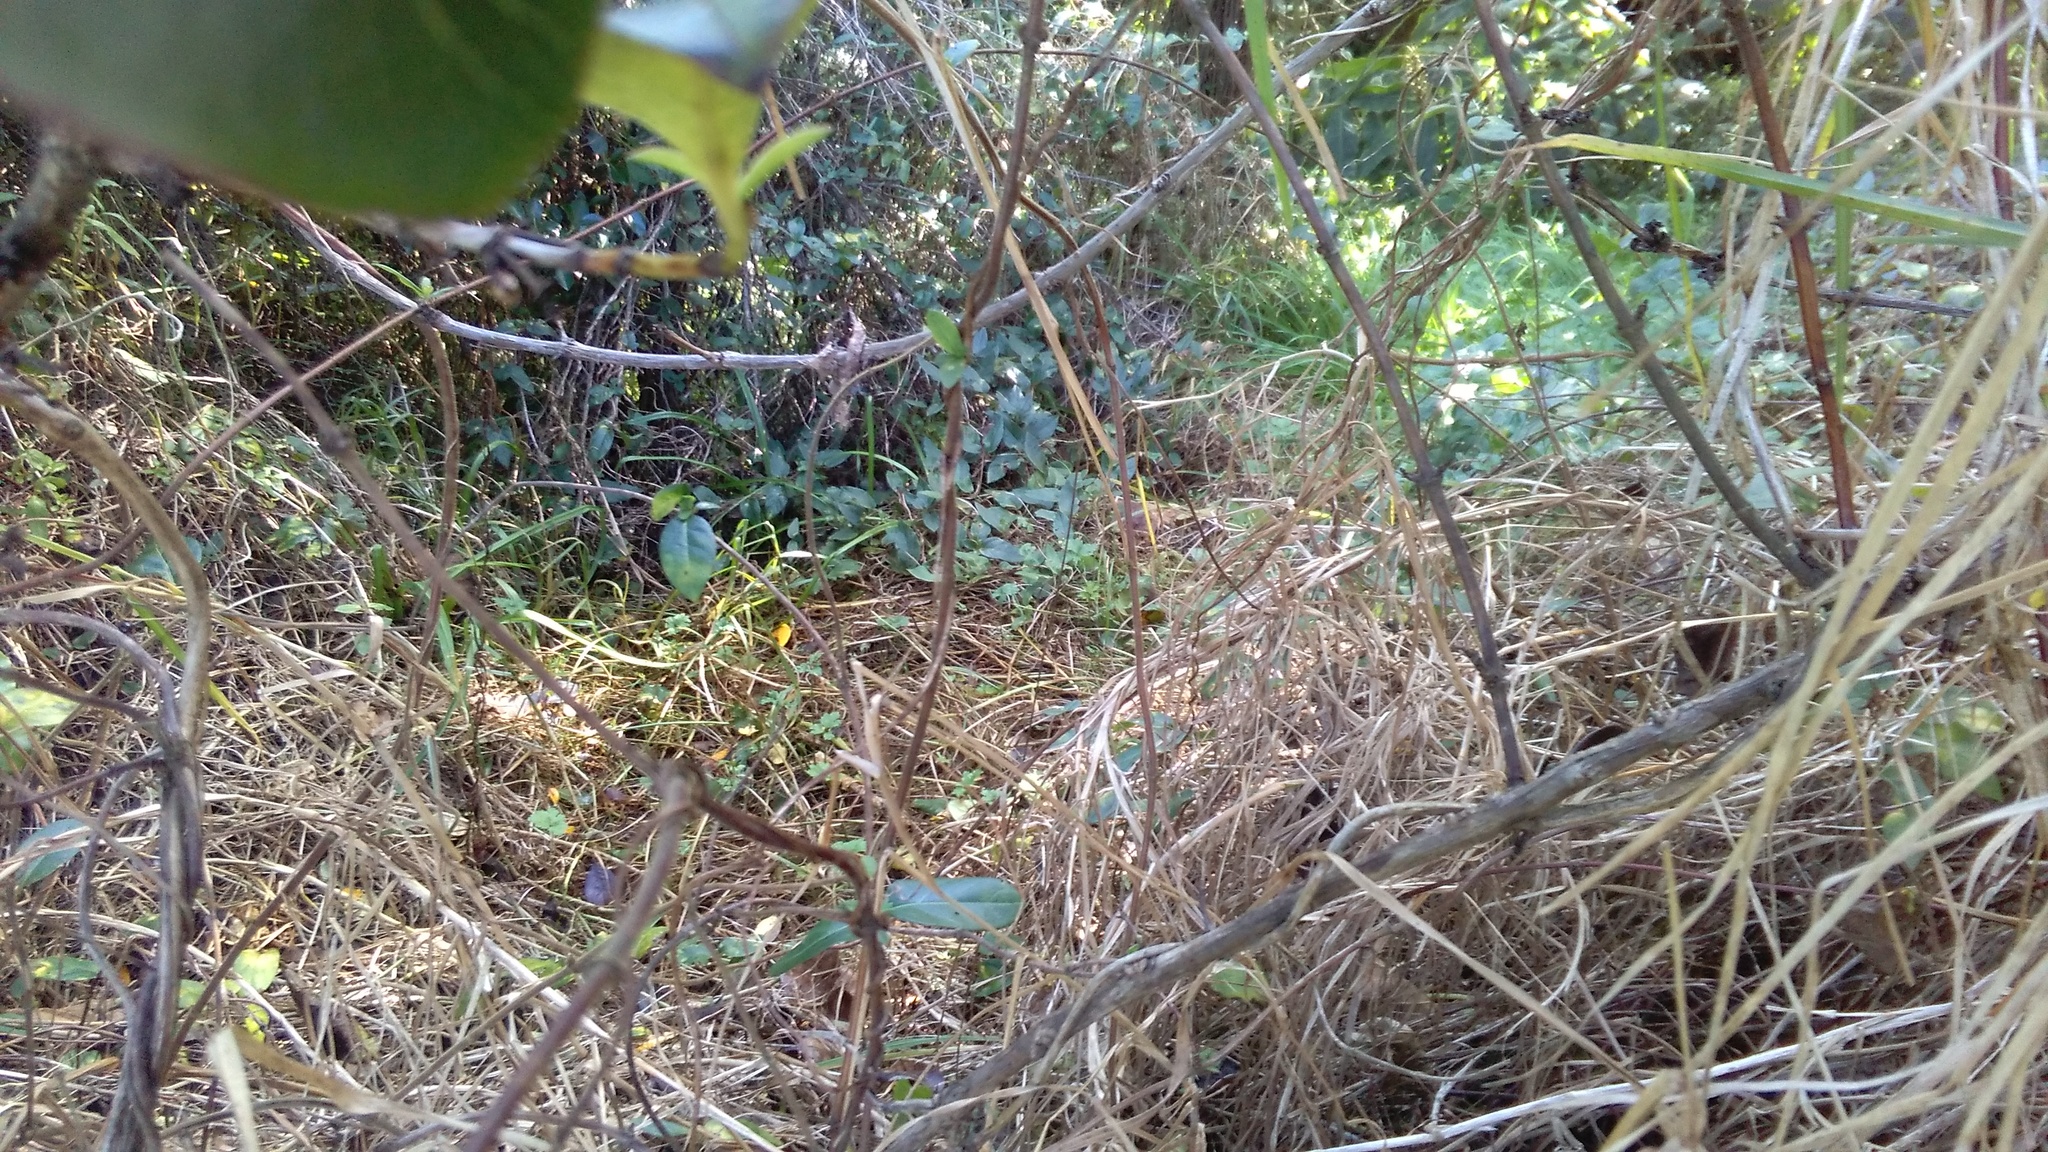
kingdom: Plantae
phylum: Tracheophyta
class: Magnoliopsida
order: Dipsacales
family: Caprifoliaceae
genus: Lonicera
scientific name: Lonicera japonica
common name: Japanese honeysuckle
